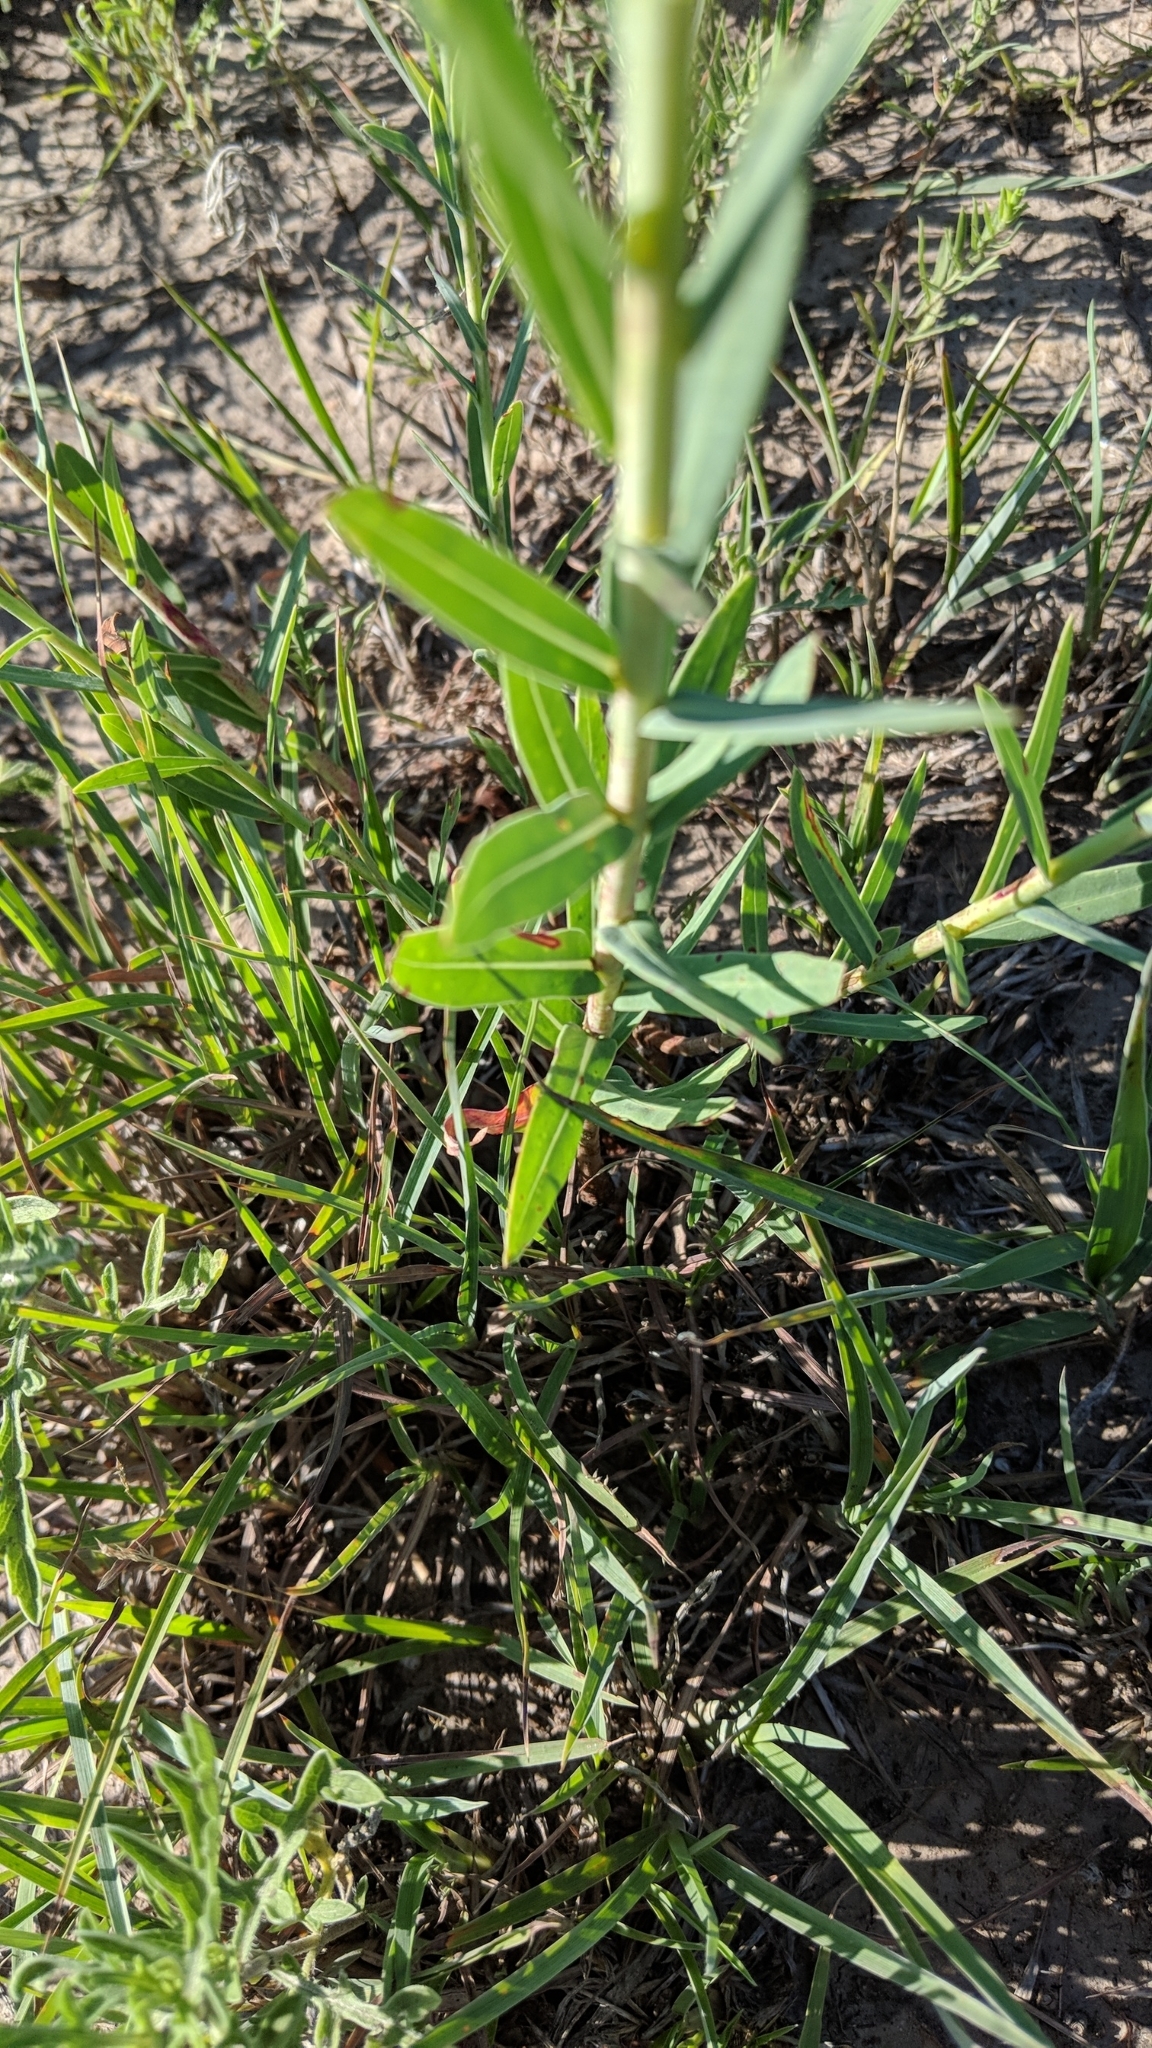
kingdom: Plantae
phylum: Tracheophyta
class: Magnoliopsida
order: Myrtales
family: Onagraceae
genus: Oenothera
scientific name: Oenothera glaucifolia
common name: False gaura
